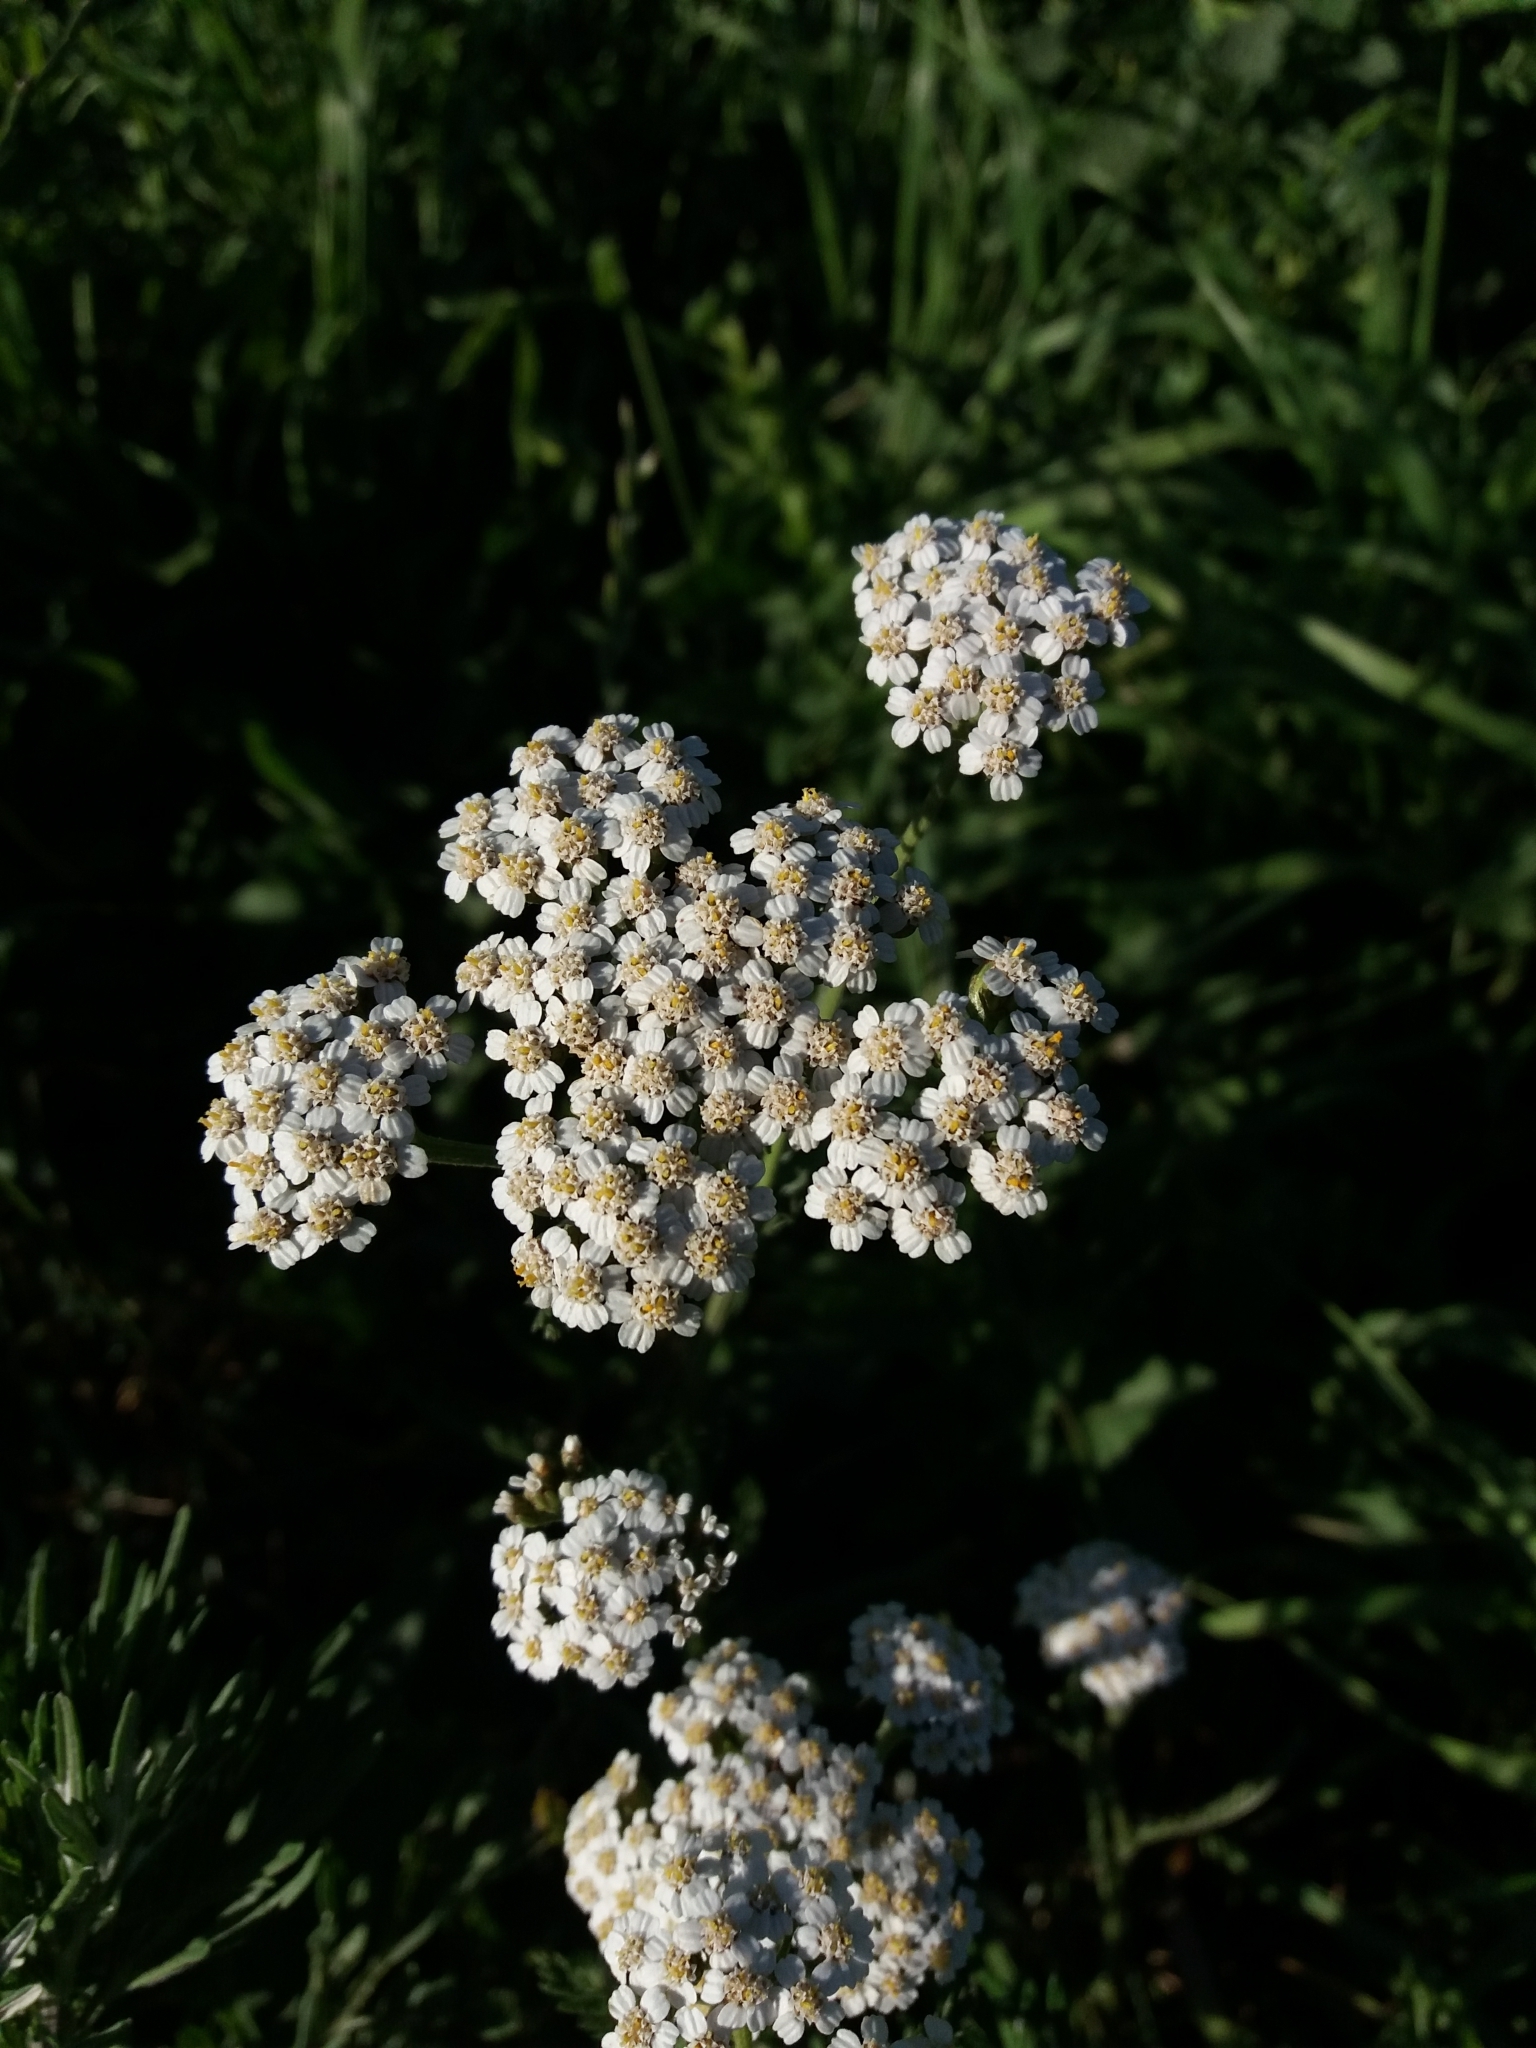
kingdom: Plantae
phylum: Tracheophyta
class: Magnoliopsida
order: Asterales
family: Asteraceae
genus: Achillea
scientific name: Achillea millefolium
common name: Yarrow
